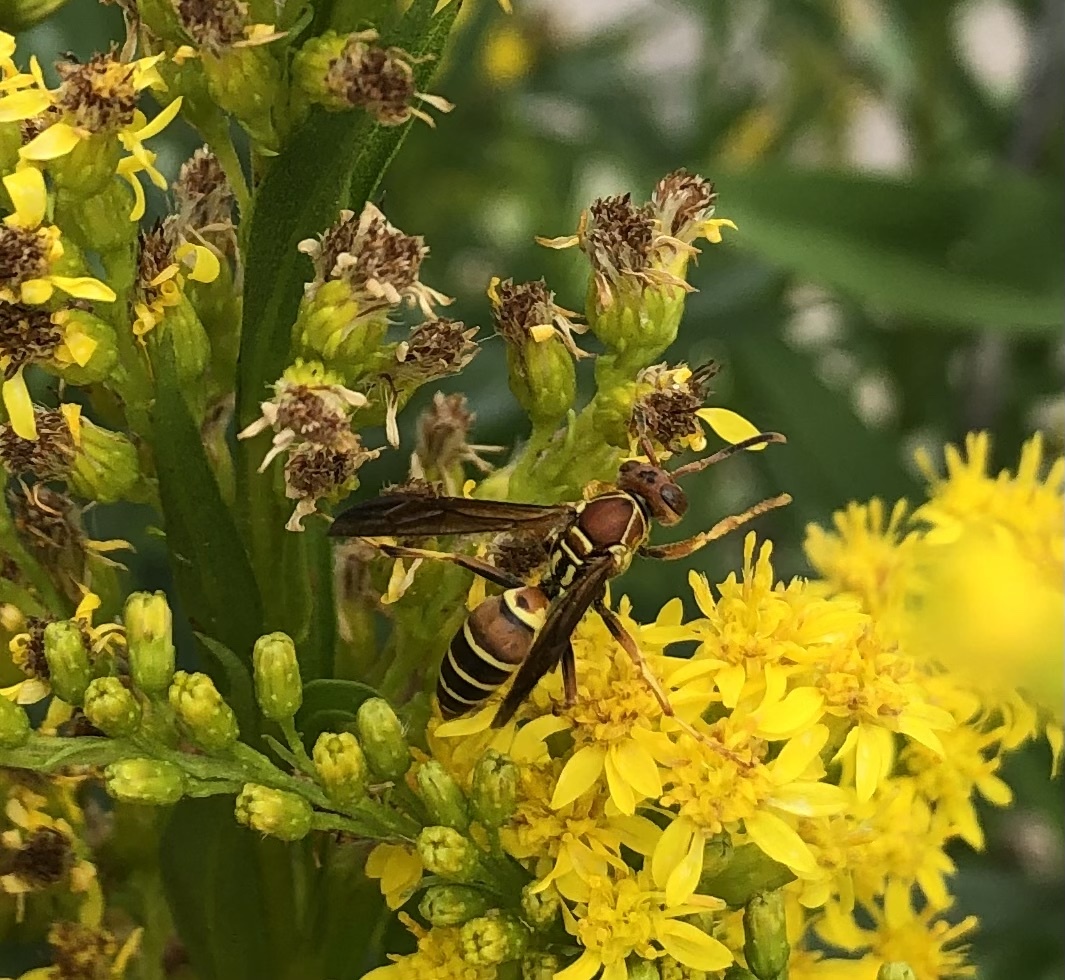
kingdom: Animalia
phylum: Arthropoda
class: Insecta
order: Hymenoptera
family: Eumenidae
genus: Polistes
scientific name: Polistes dorsalis
